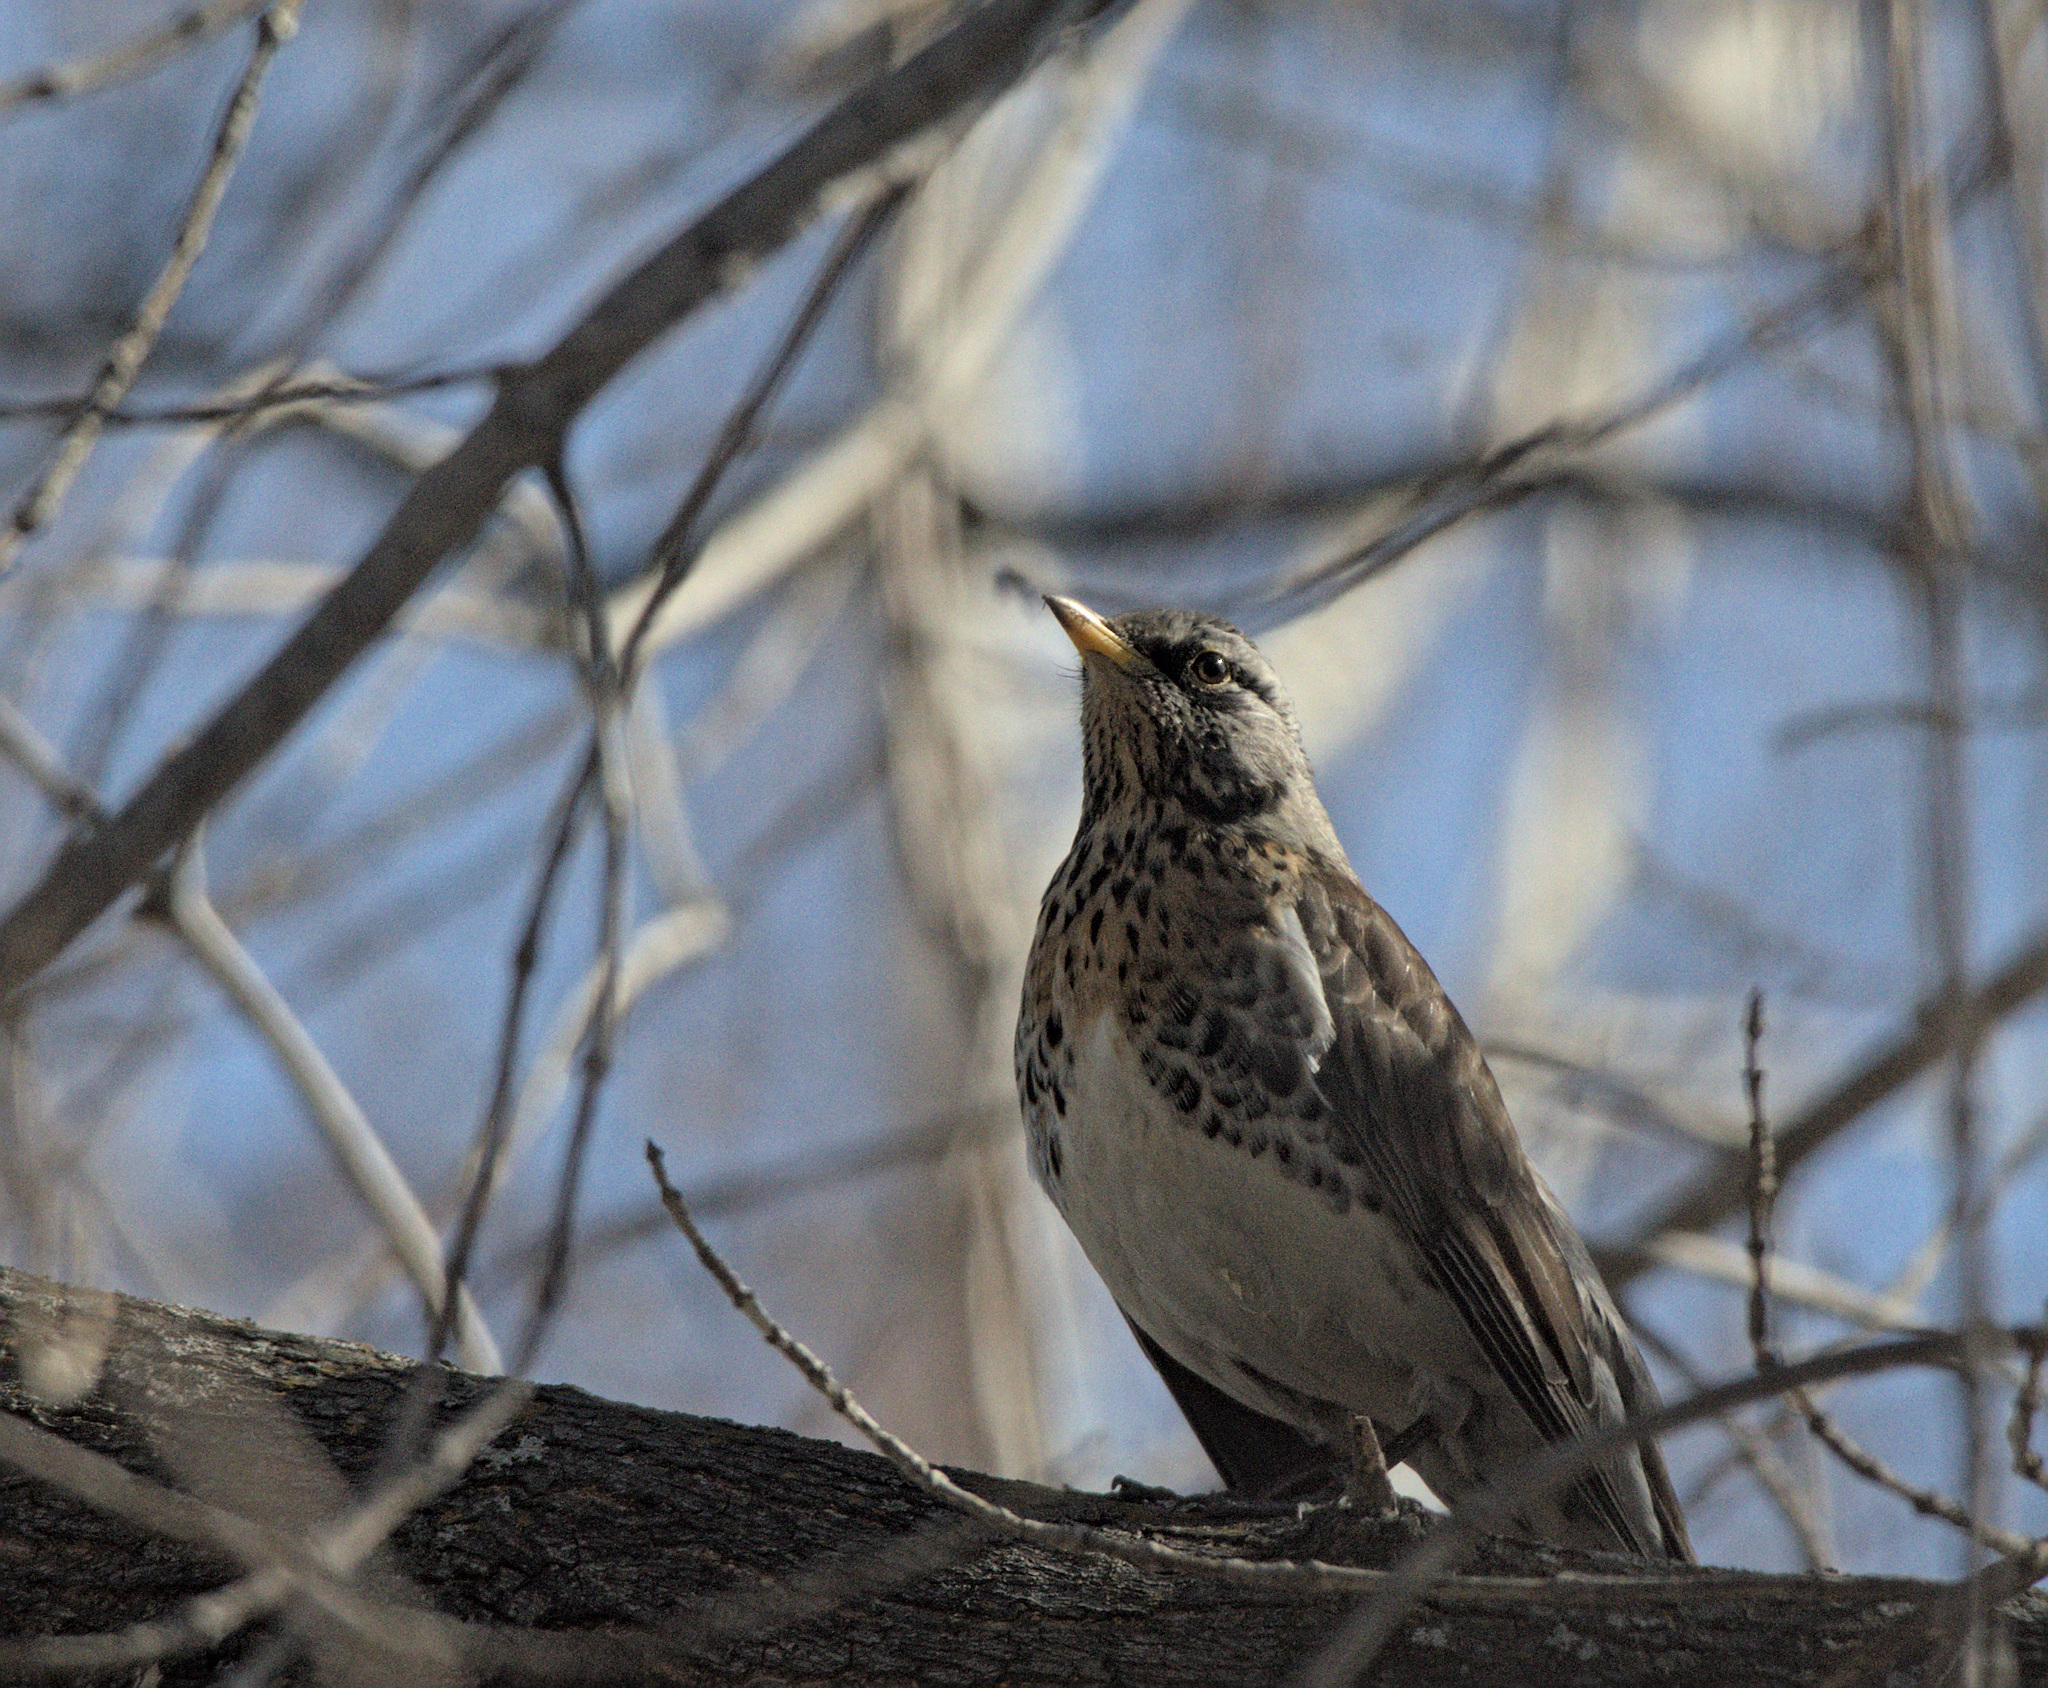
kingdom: Animalia
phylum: Chordata
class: Aves
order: Passeriformes
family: Turdidae
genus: Turdus
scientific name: Turdus pilaris
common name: Fieldfare
